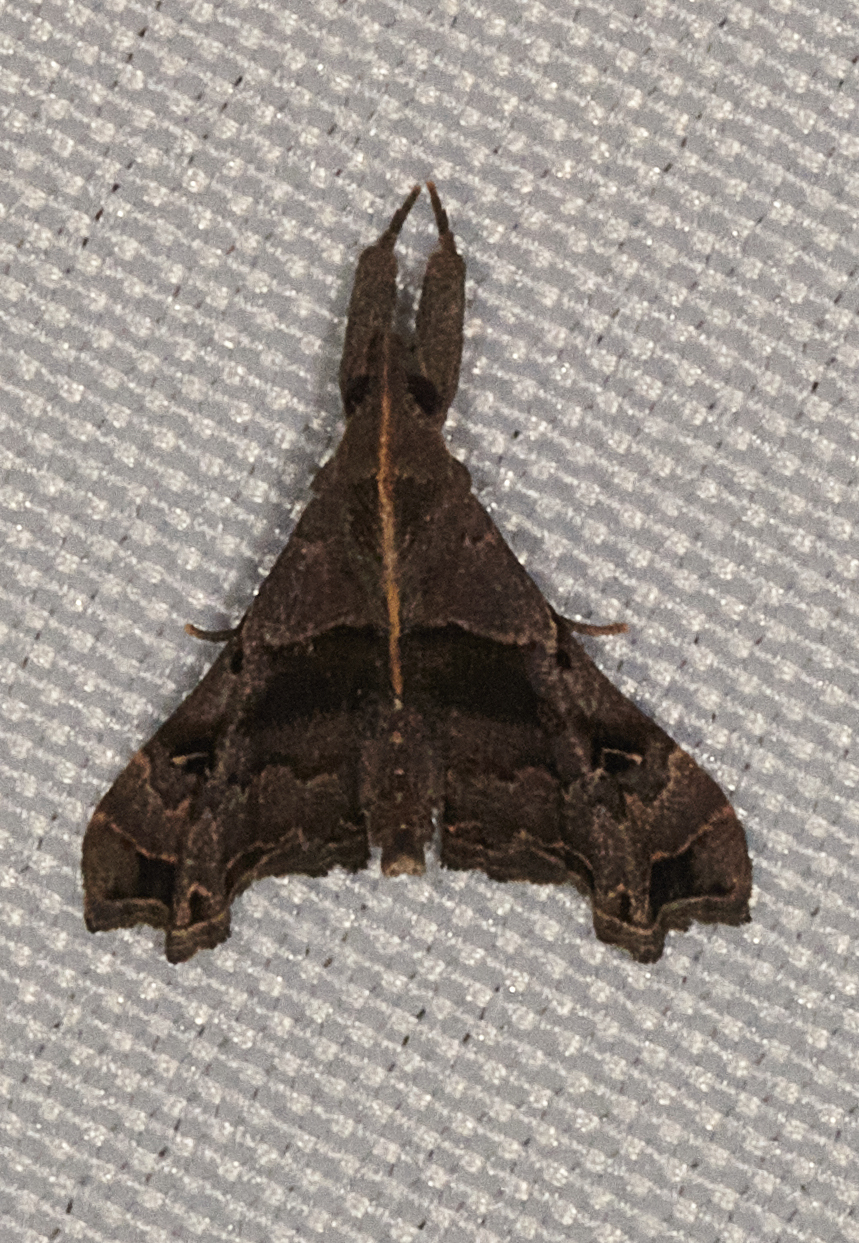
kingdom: Animalia
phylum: Arthropoda
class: Insecta
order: Lepidoptera
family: Erebidae
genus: Palthis
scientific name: Palthis asopialis
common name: Faint-spotted palthis moth
